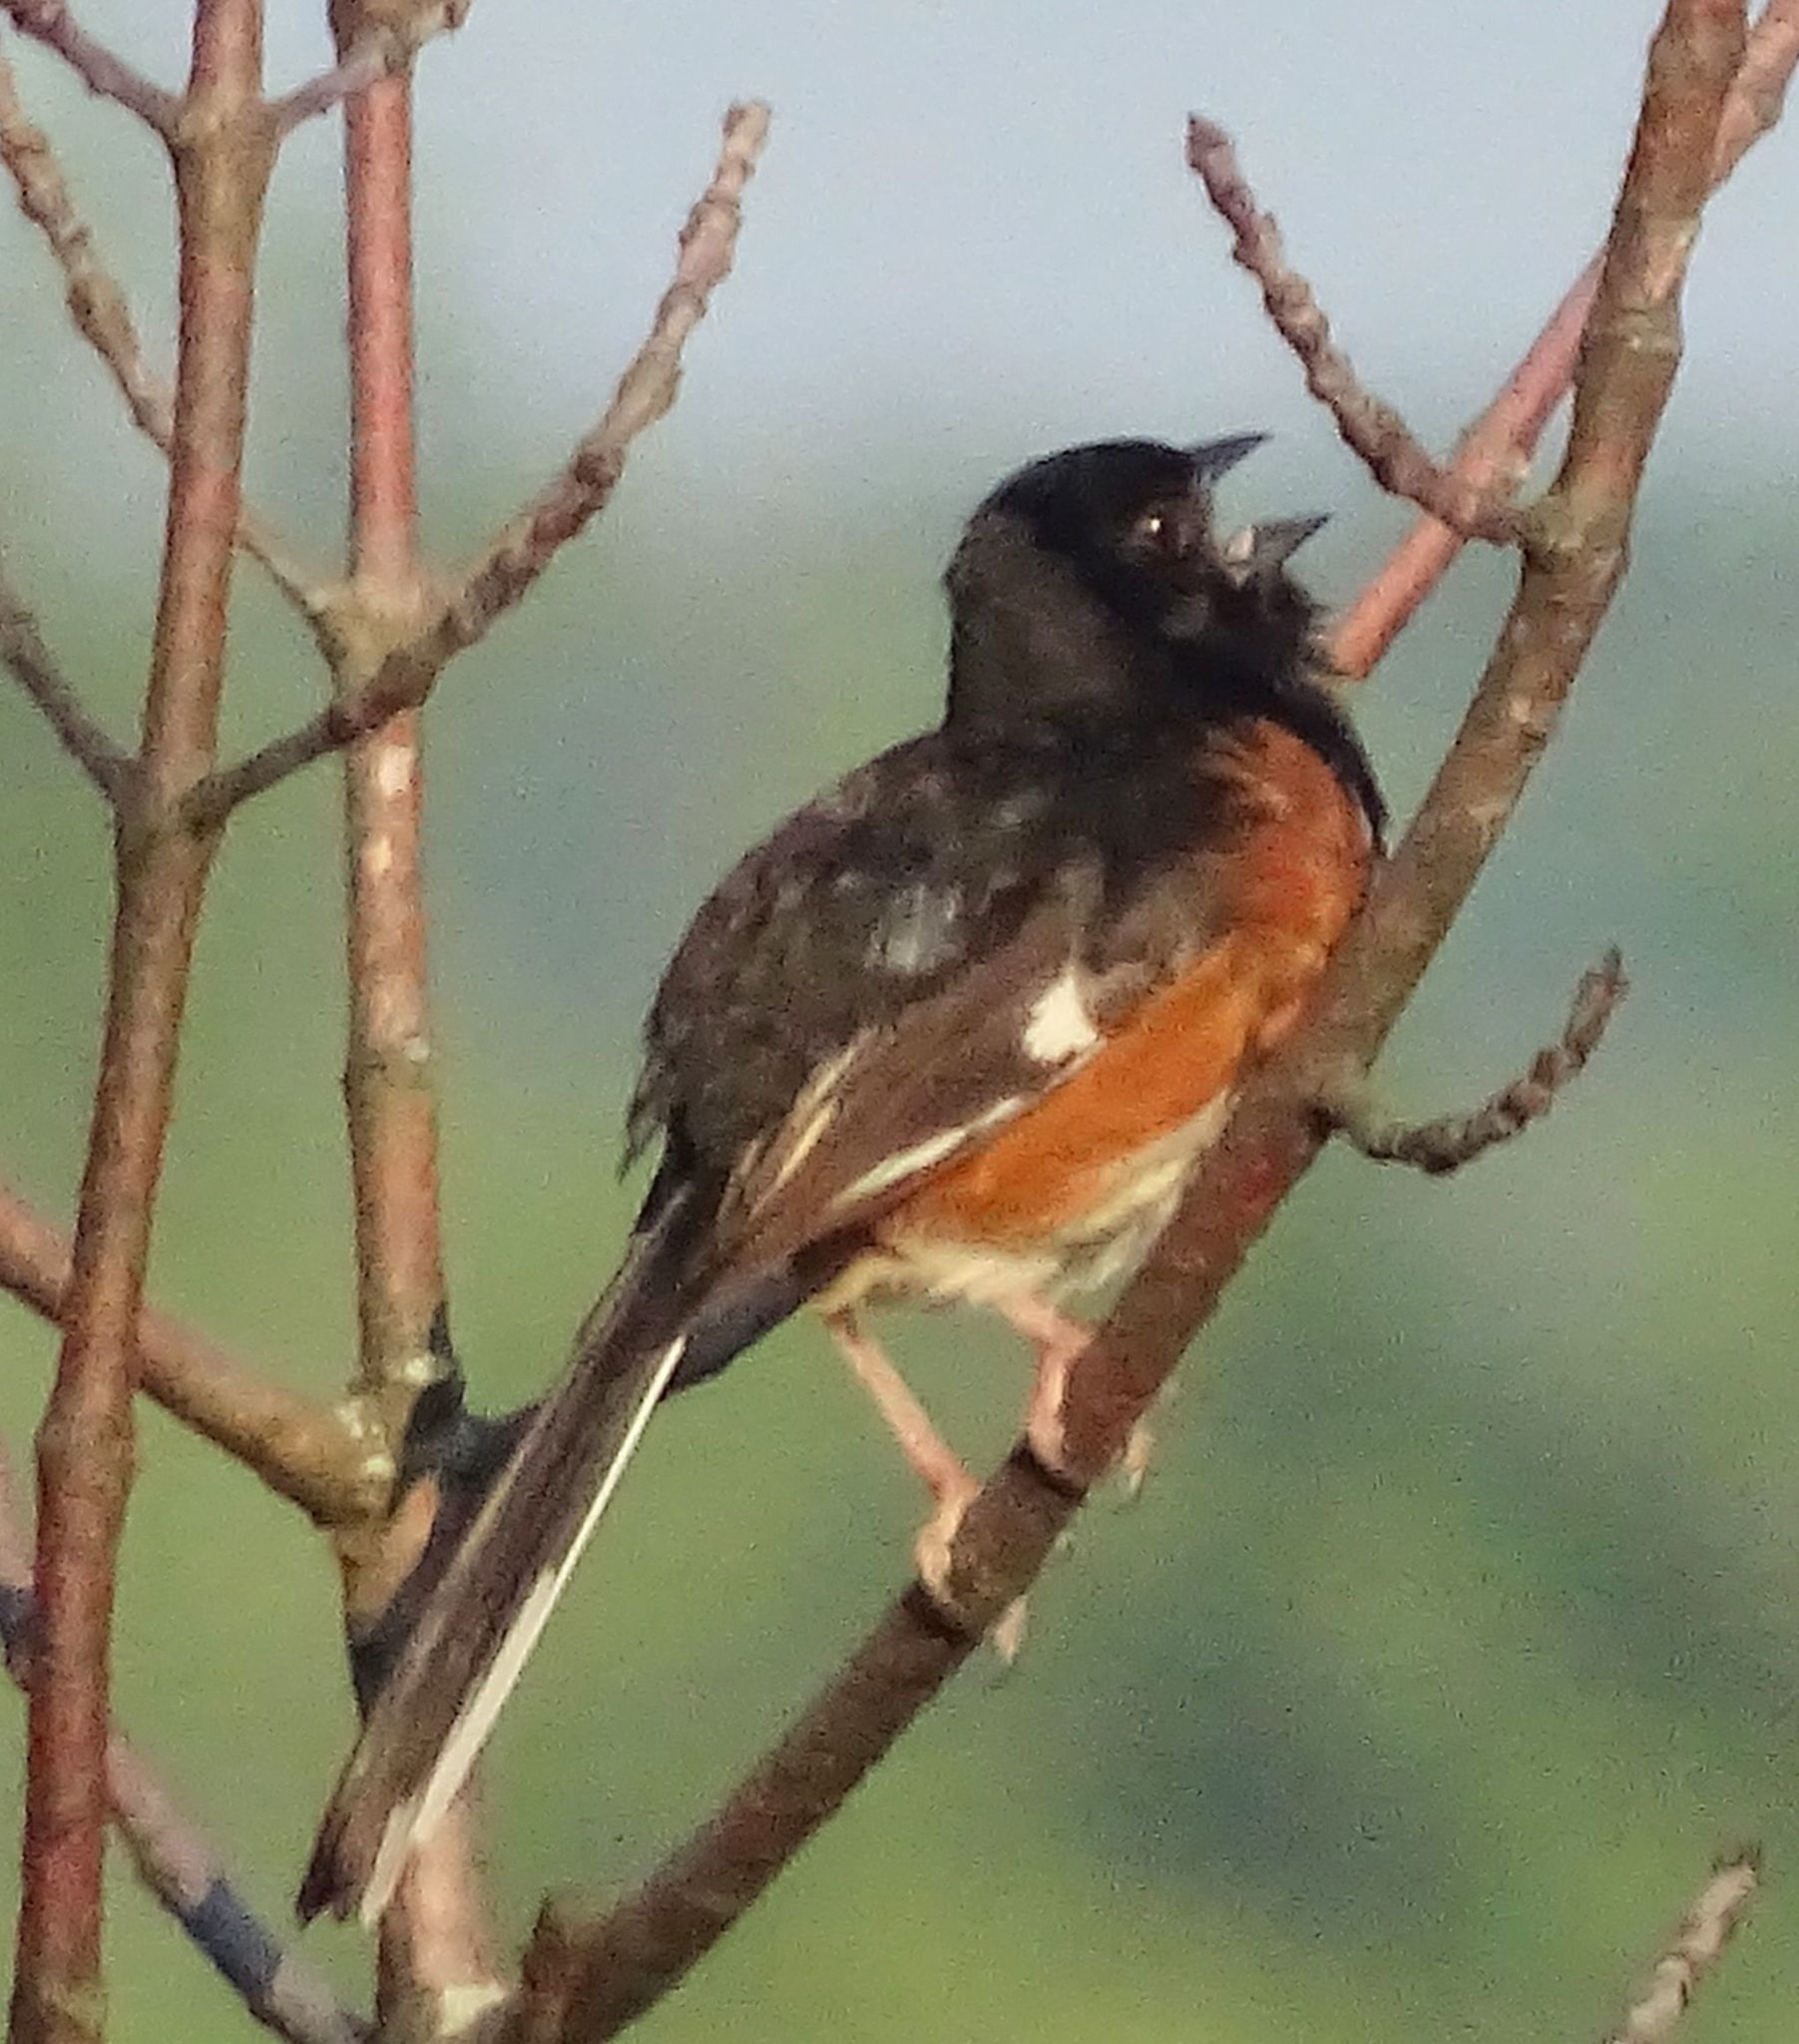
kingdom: Animalia
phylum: Chordata
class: Aves
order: Passeriformes
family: Passerellidae
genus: Pipilo
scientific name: Pipilo erythrophthalmus
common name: Eastern towhee
